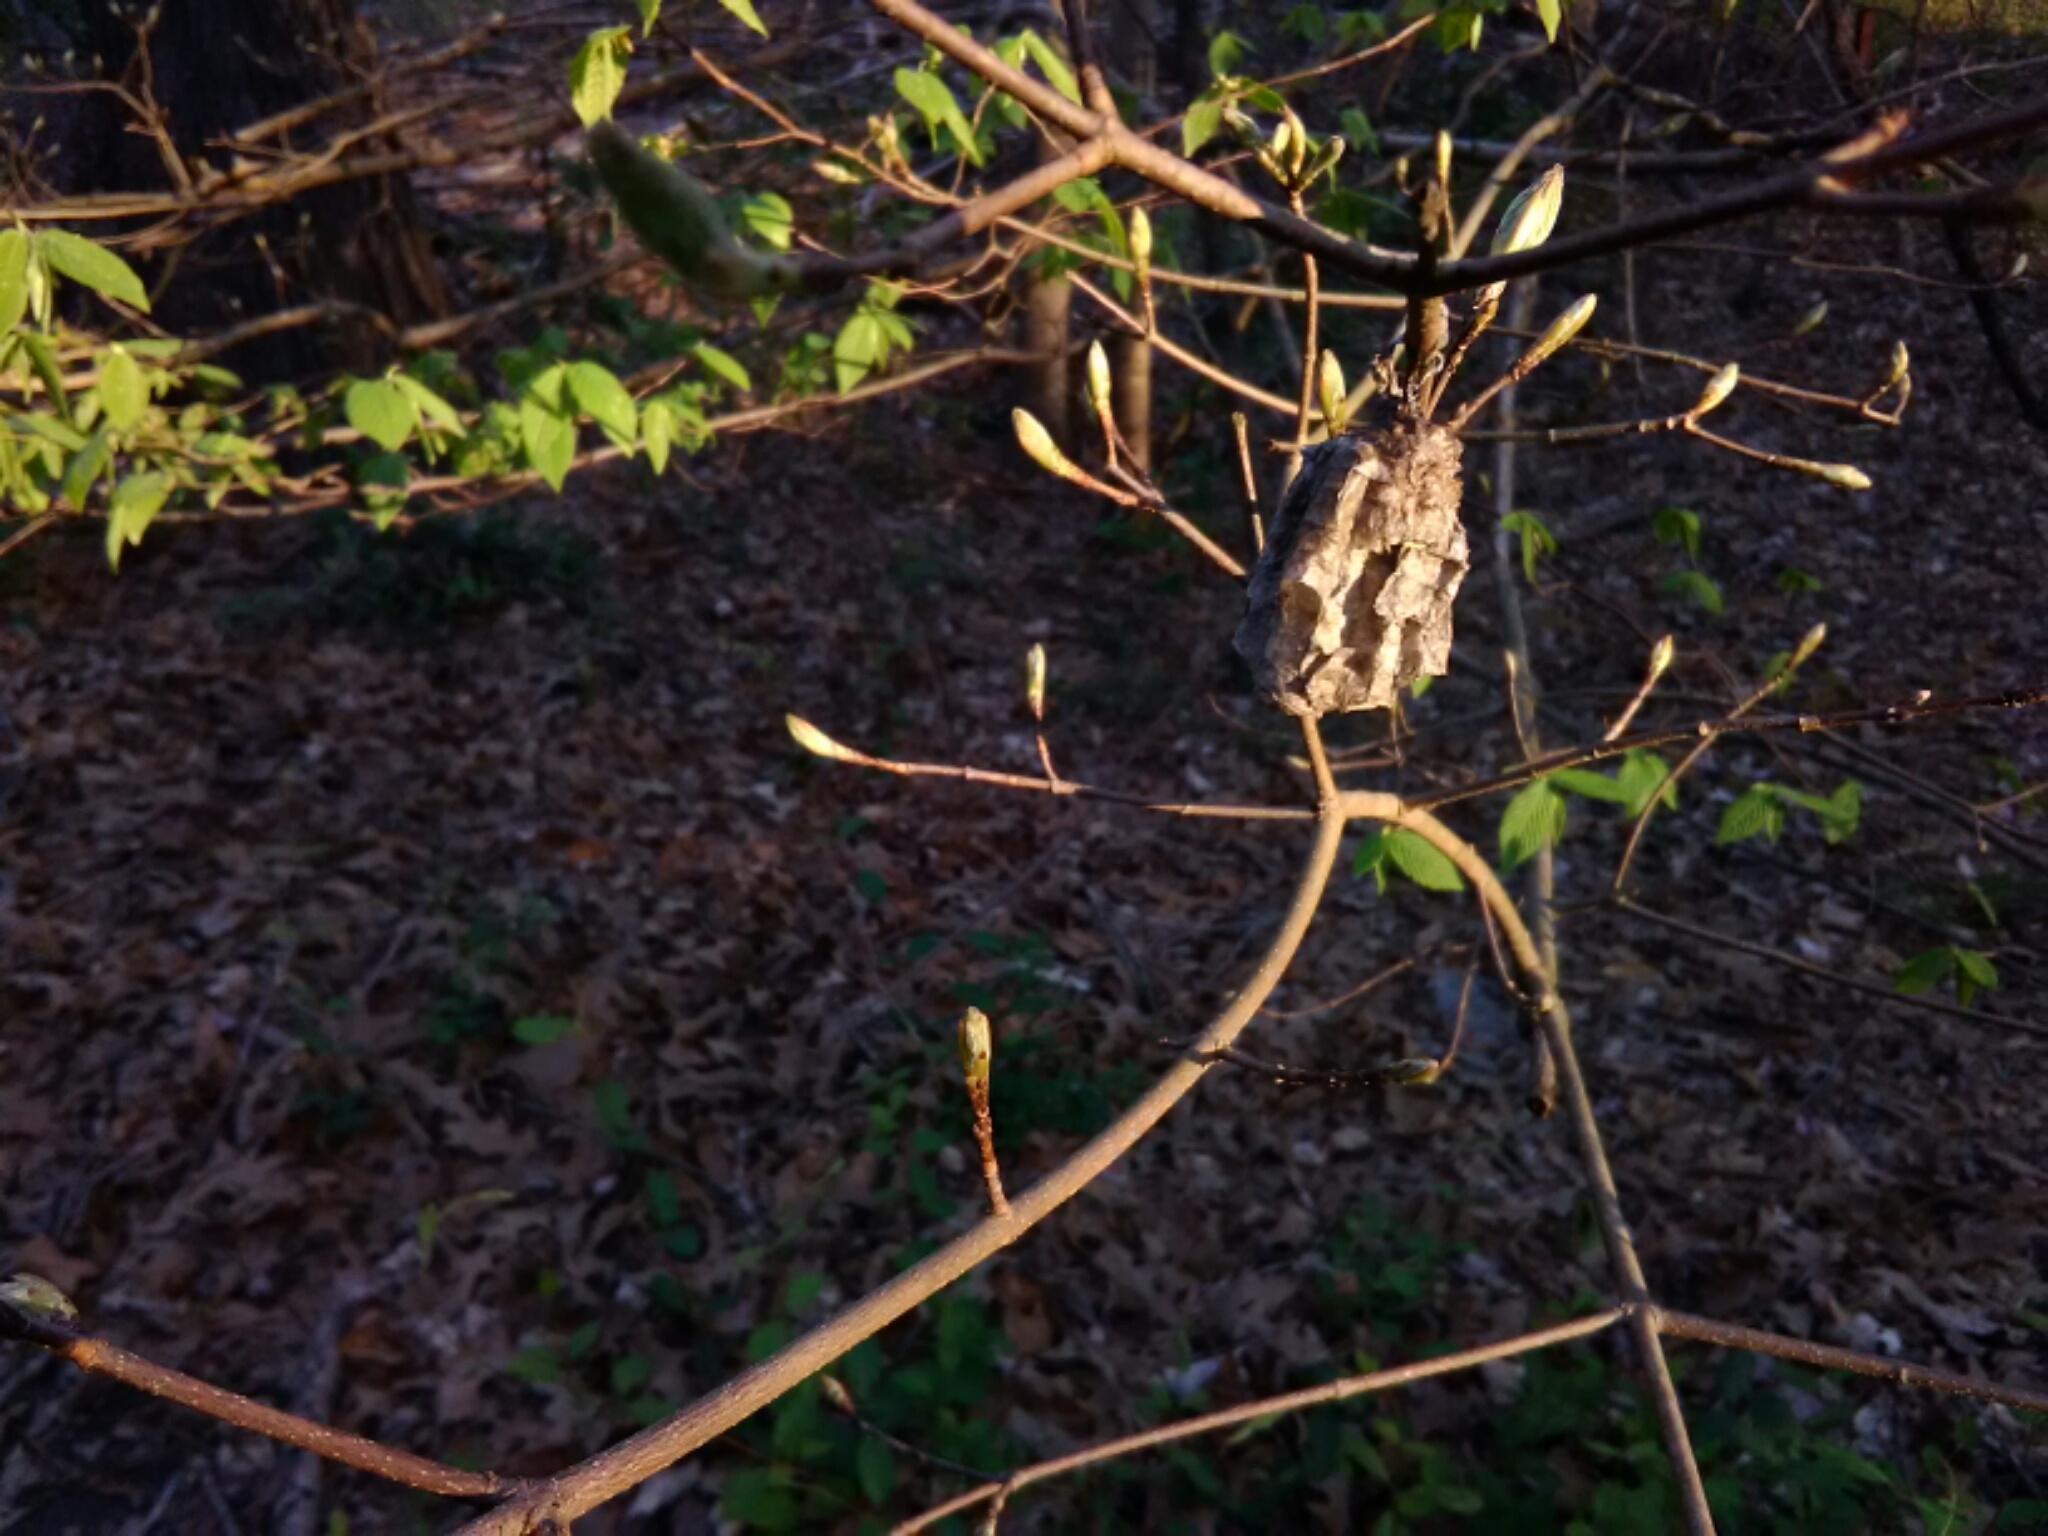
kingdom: Animalia
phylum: Arthropoda
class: Insecta
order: Hymenoptera
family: Vespidae
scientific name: Vespidae
